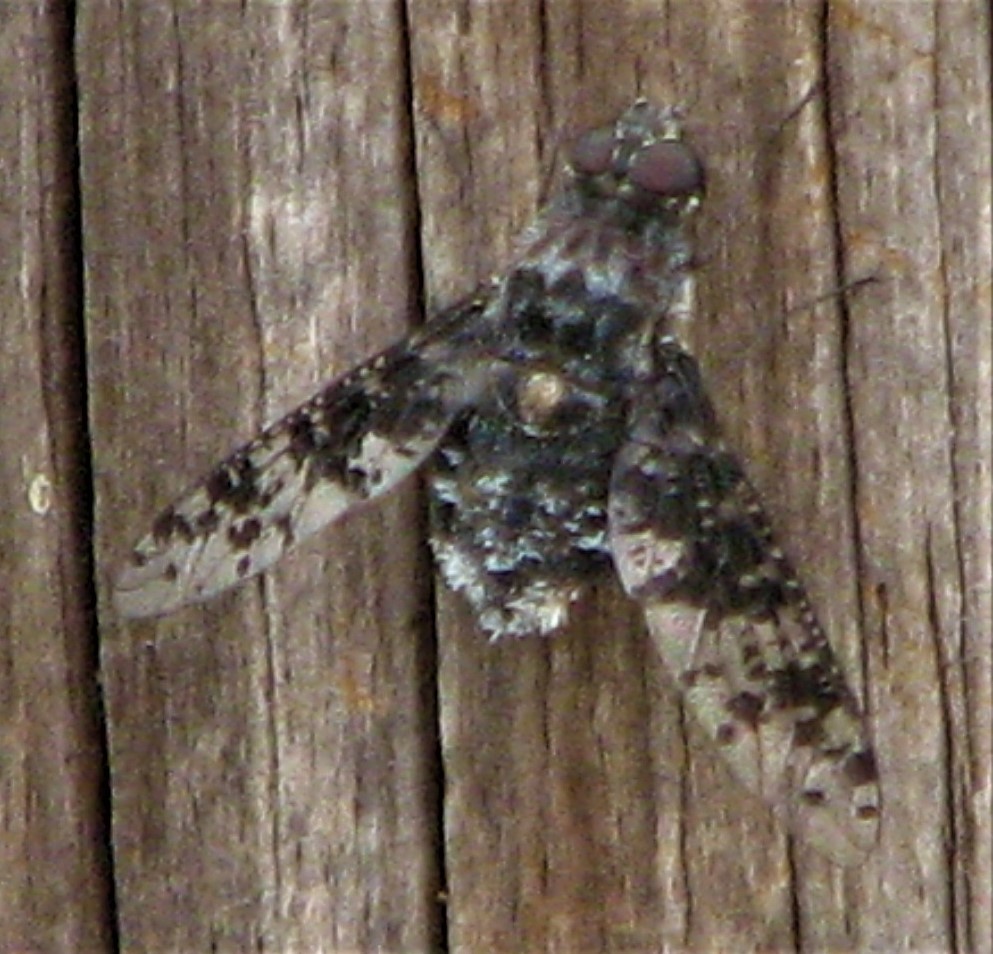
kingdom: Animalia
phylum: Arthropoda
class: Insecta
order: Diptera
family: Bombyliidae
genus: Anthrax
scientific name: Anthrax
